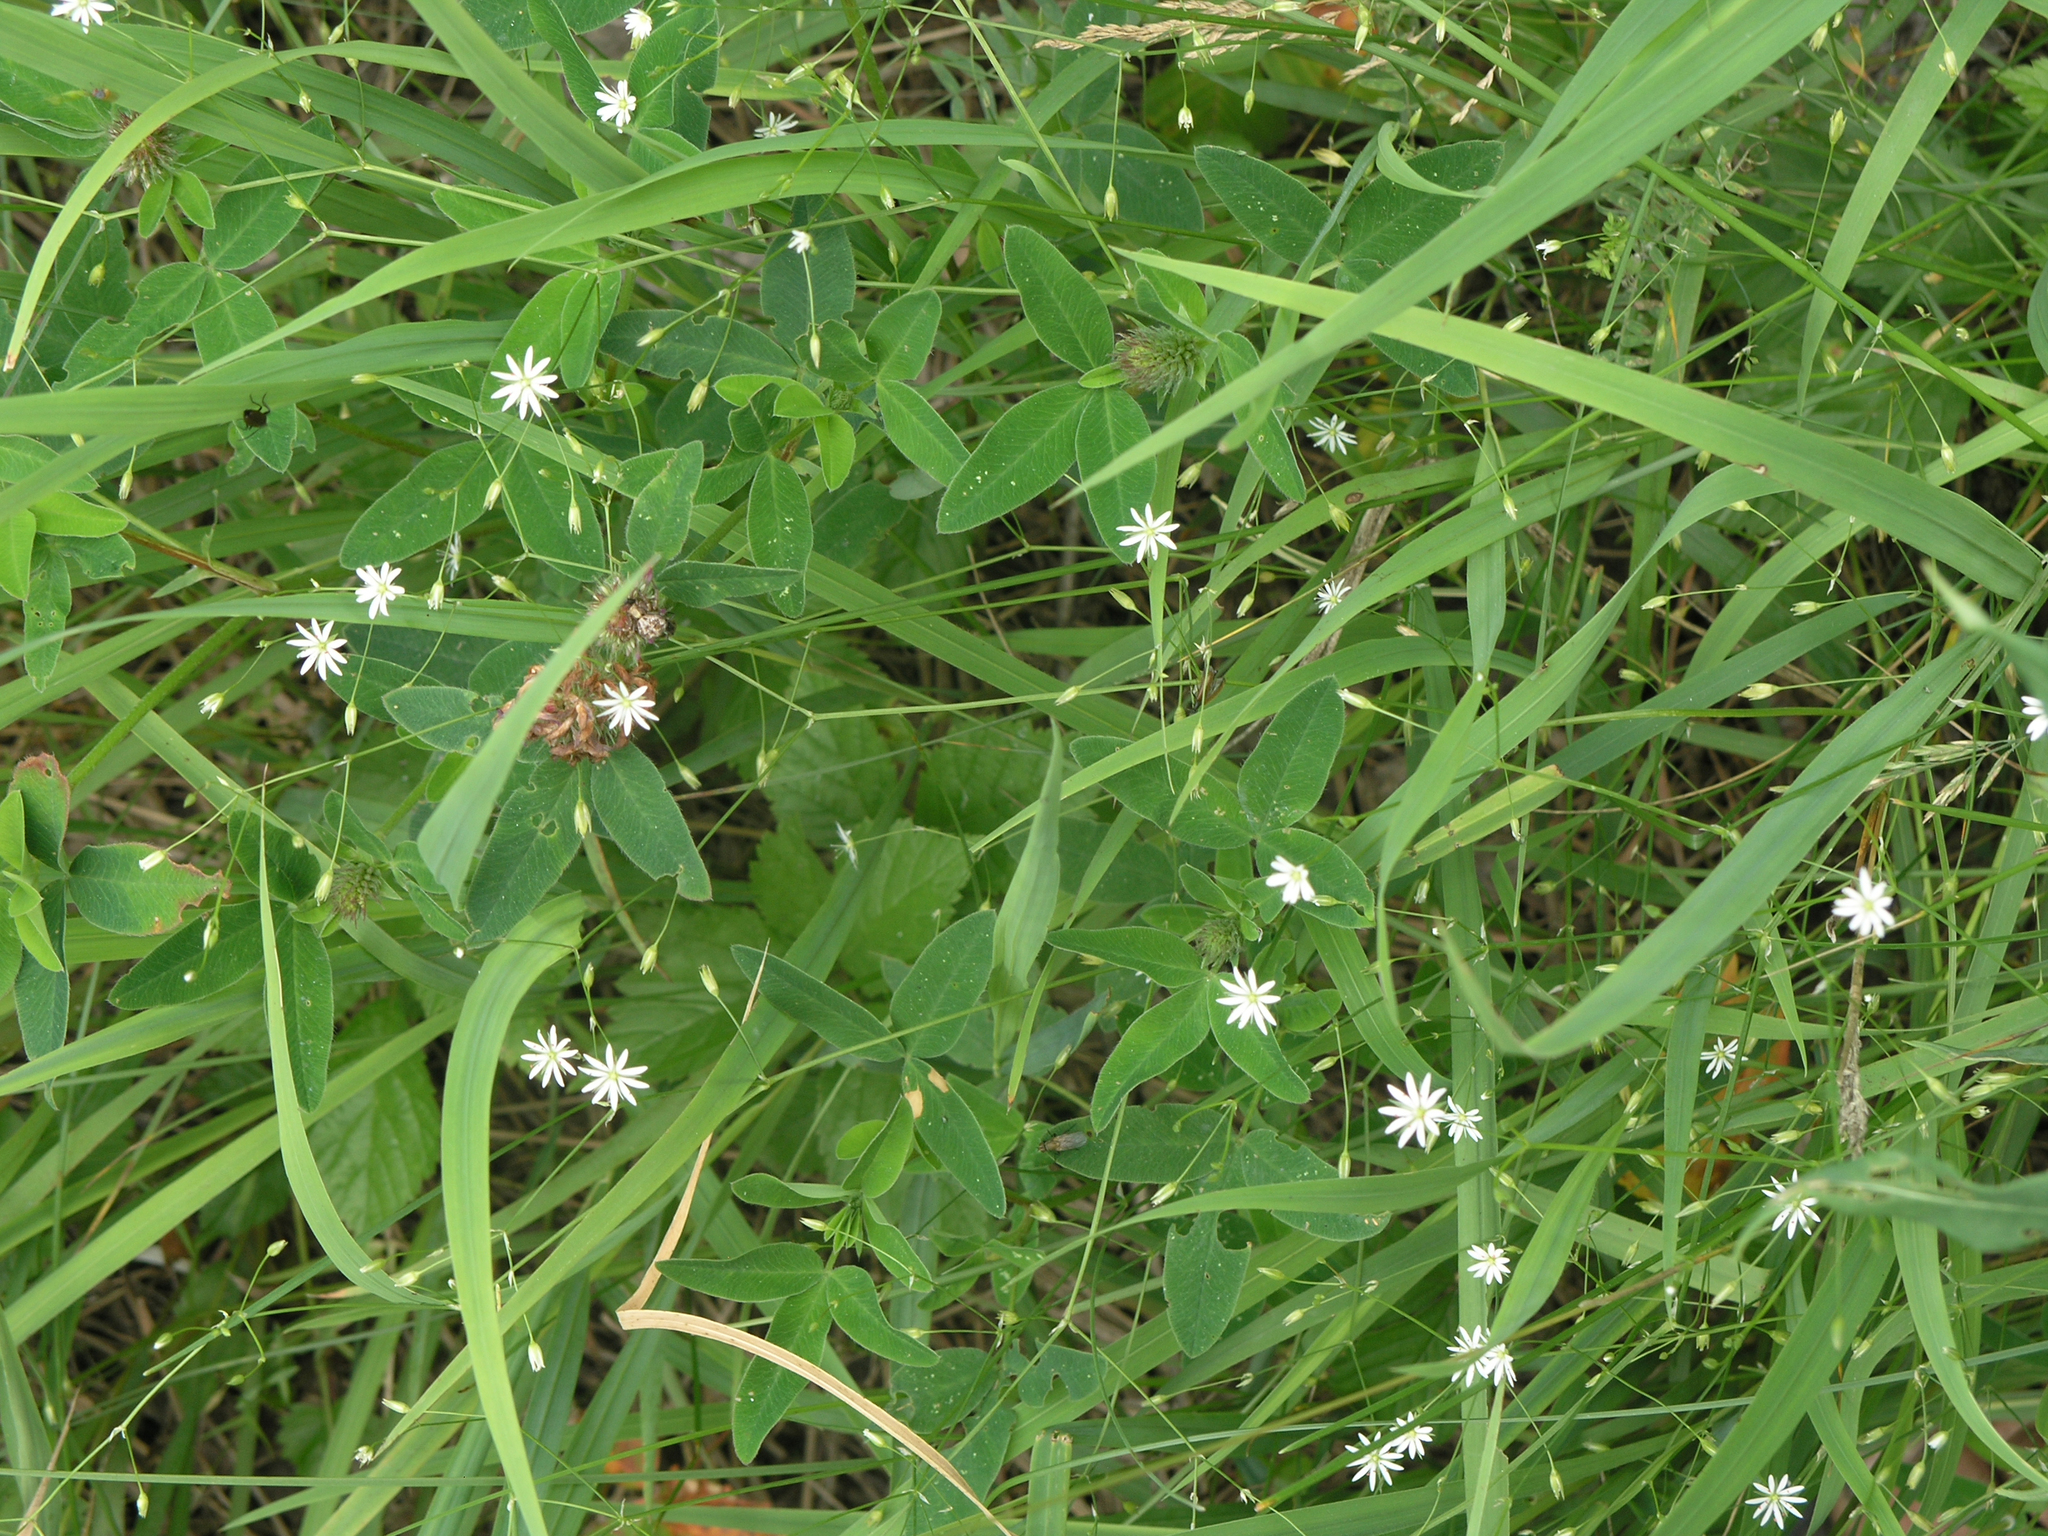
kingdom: Plantae
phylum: Tracheophyta
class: Magnoliopsida
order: Caryophyllales
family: Caryophyllaceae
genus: Stellaria
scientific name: Stellaria graminea
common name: Grass-like starwort
